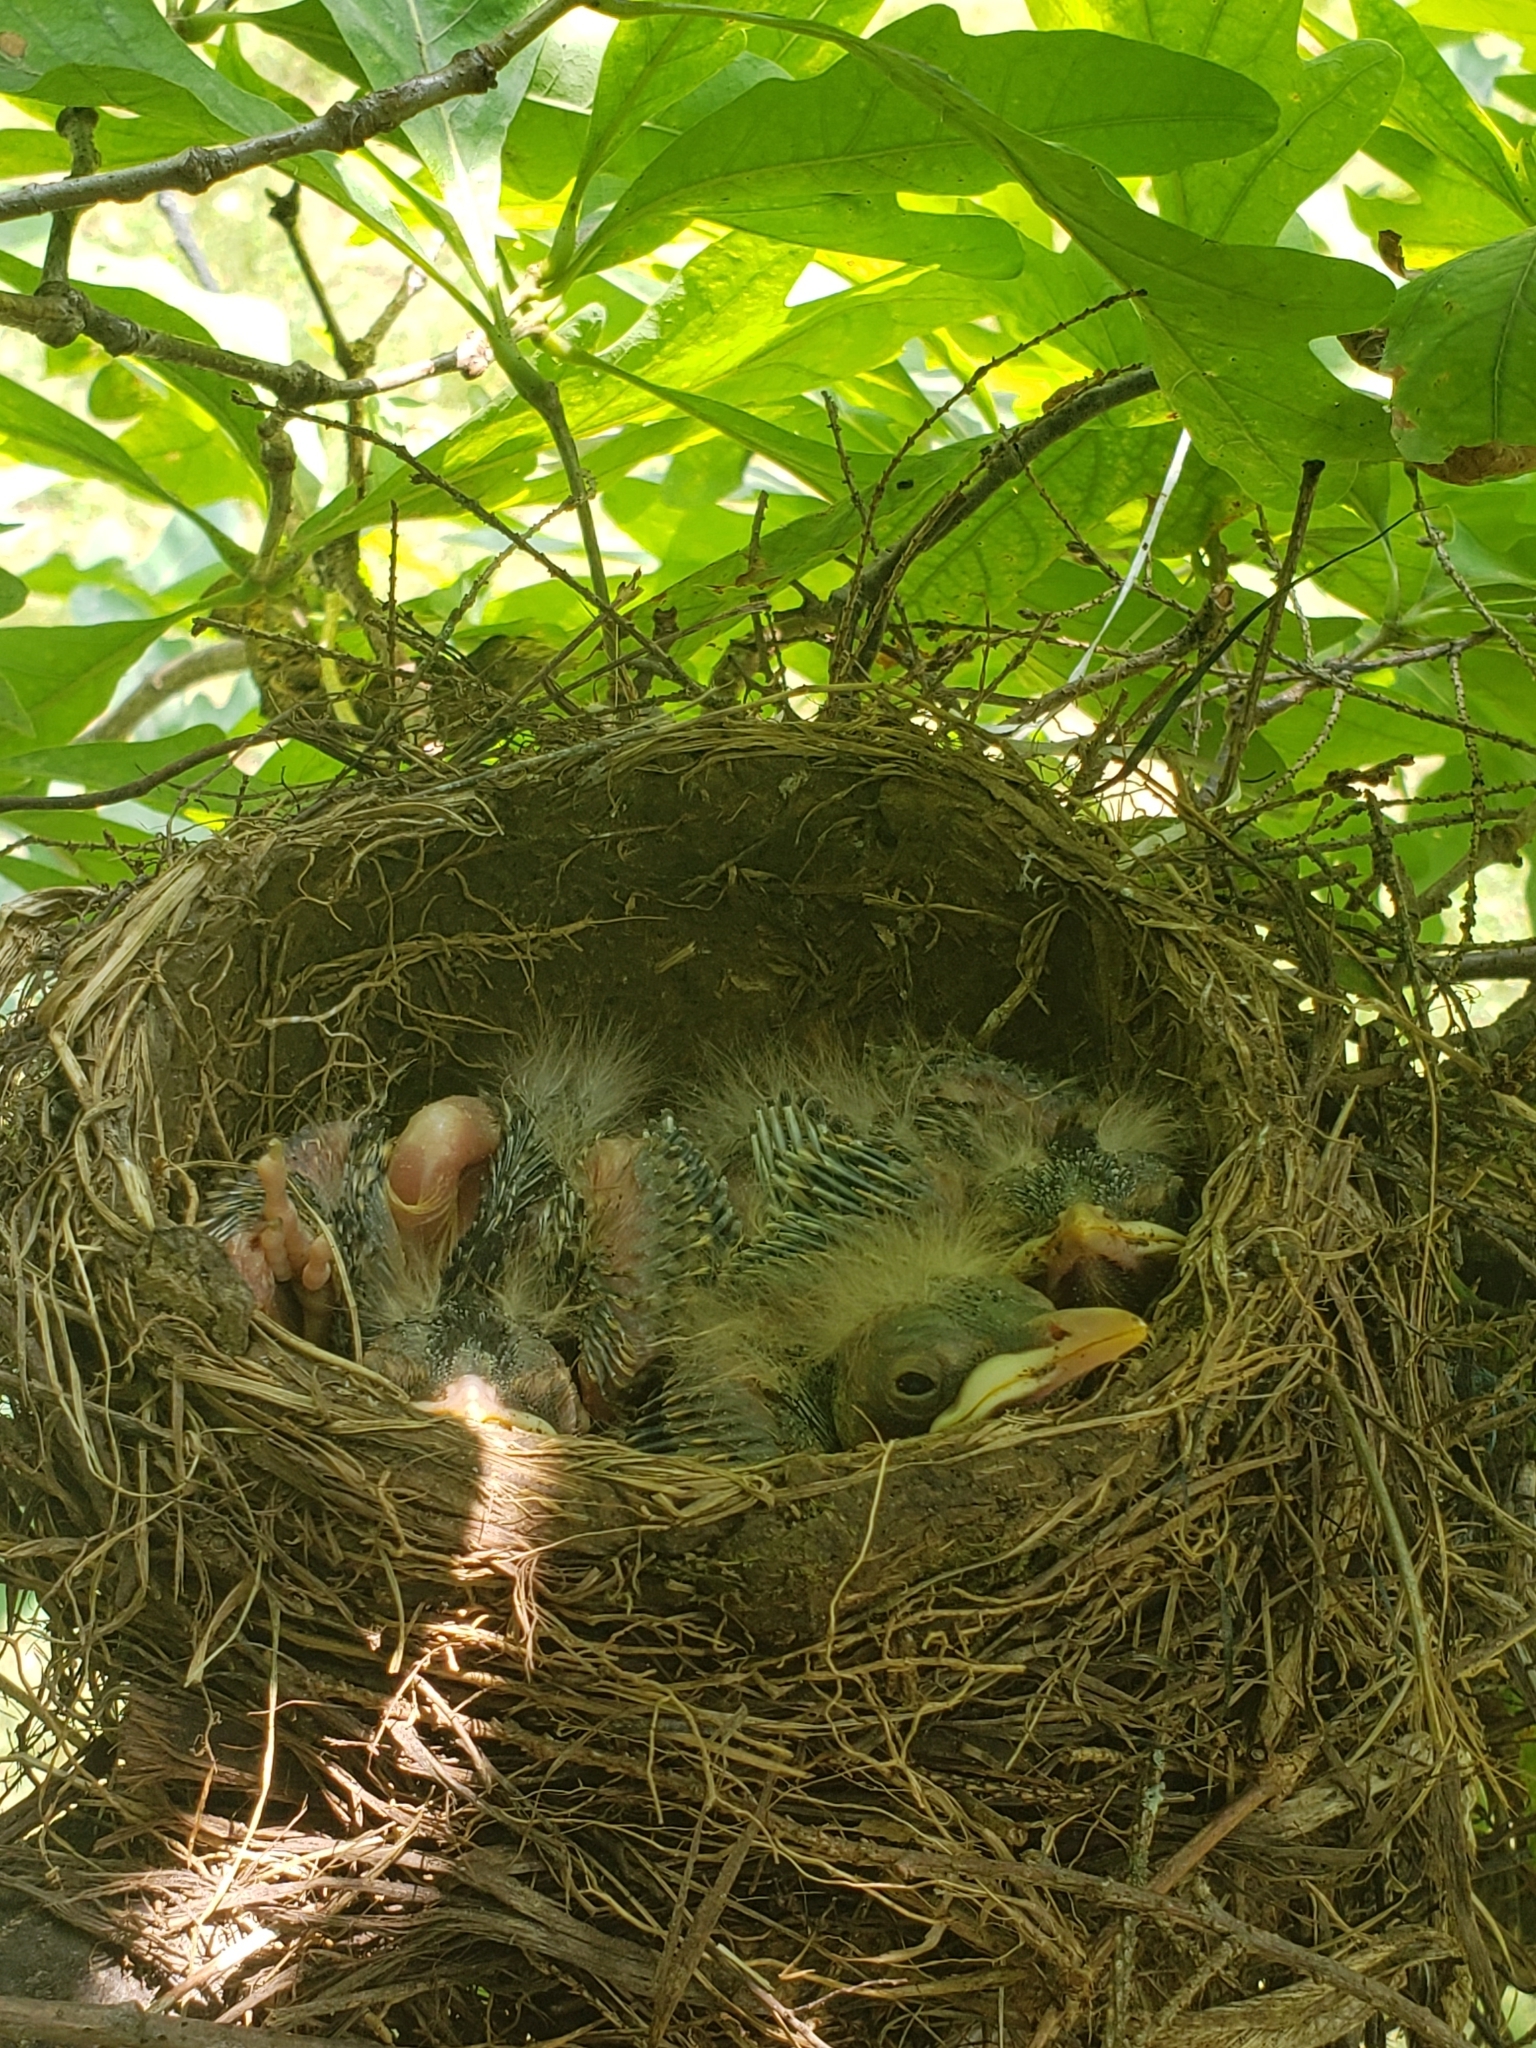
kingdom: Animalia
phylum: Chordata
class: Aves
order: Passeriformes
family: Turdidae
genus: Turdus
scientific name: Turdus migratorius
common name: American robin
